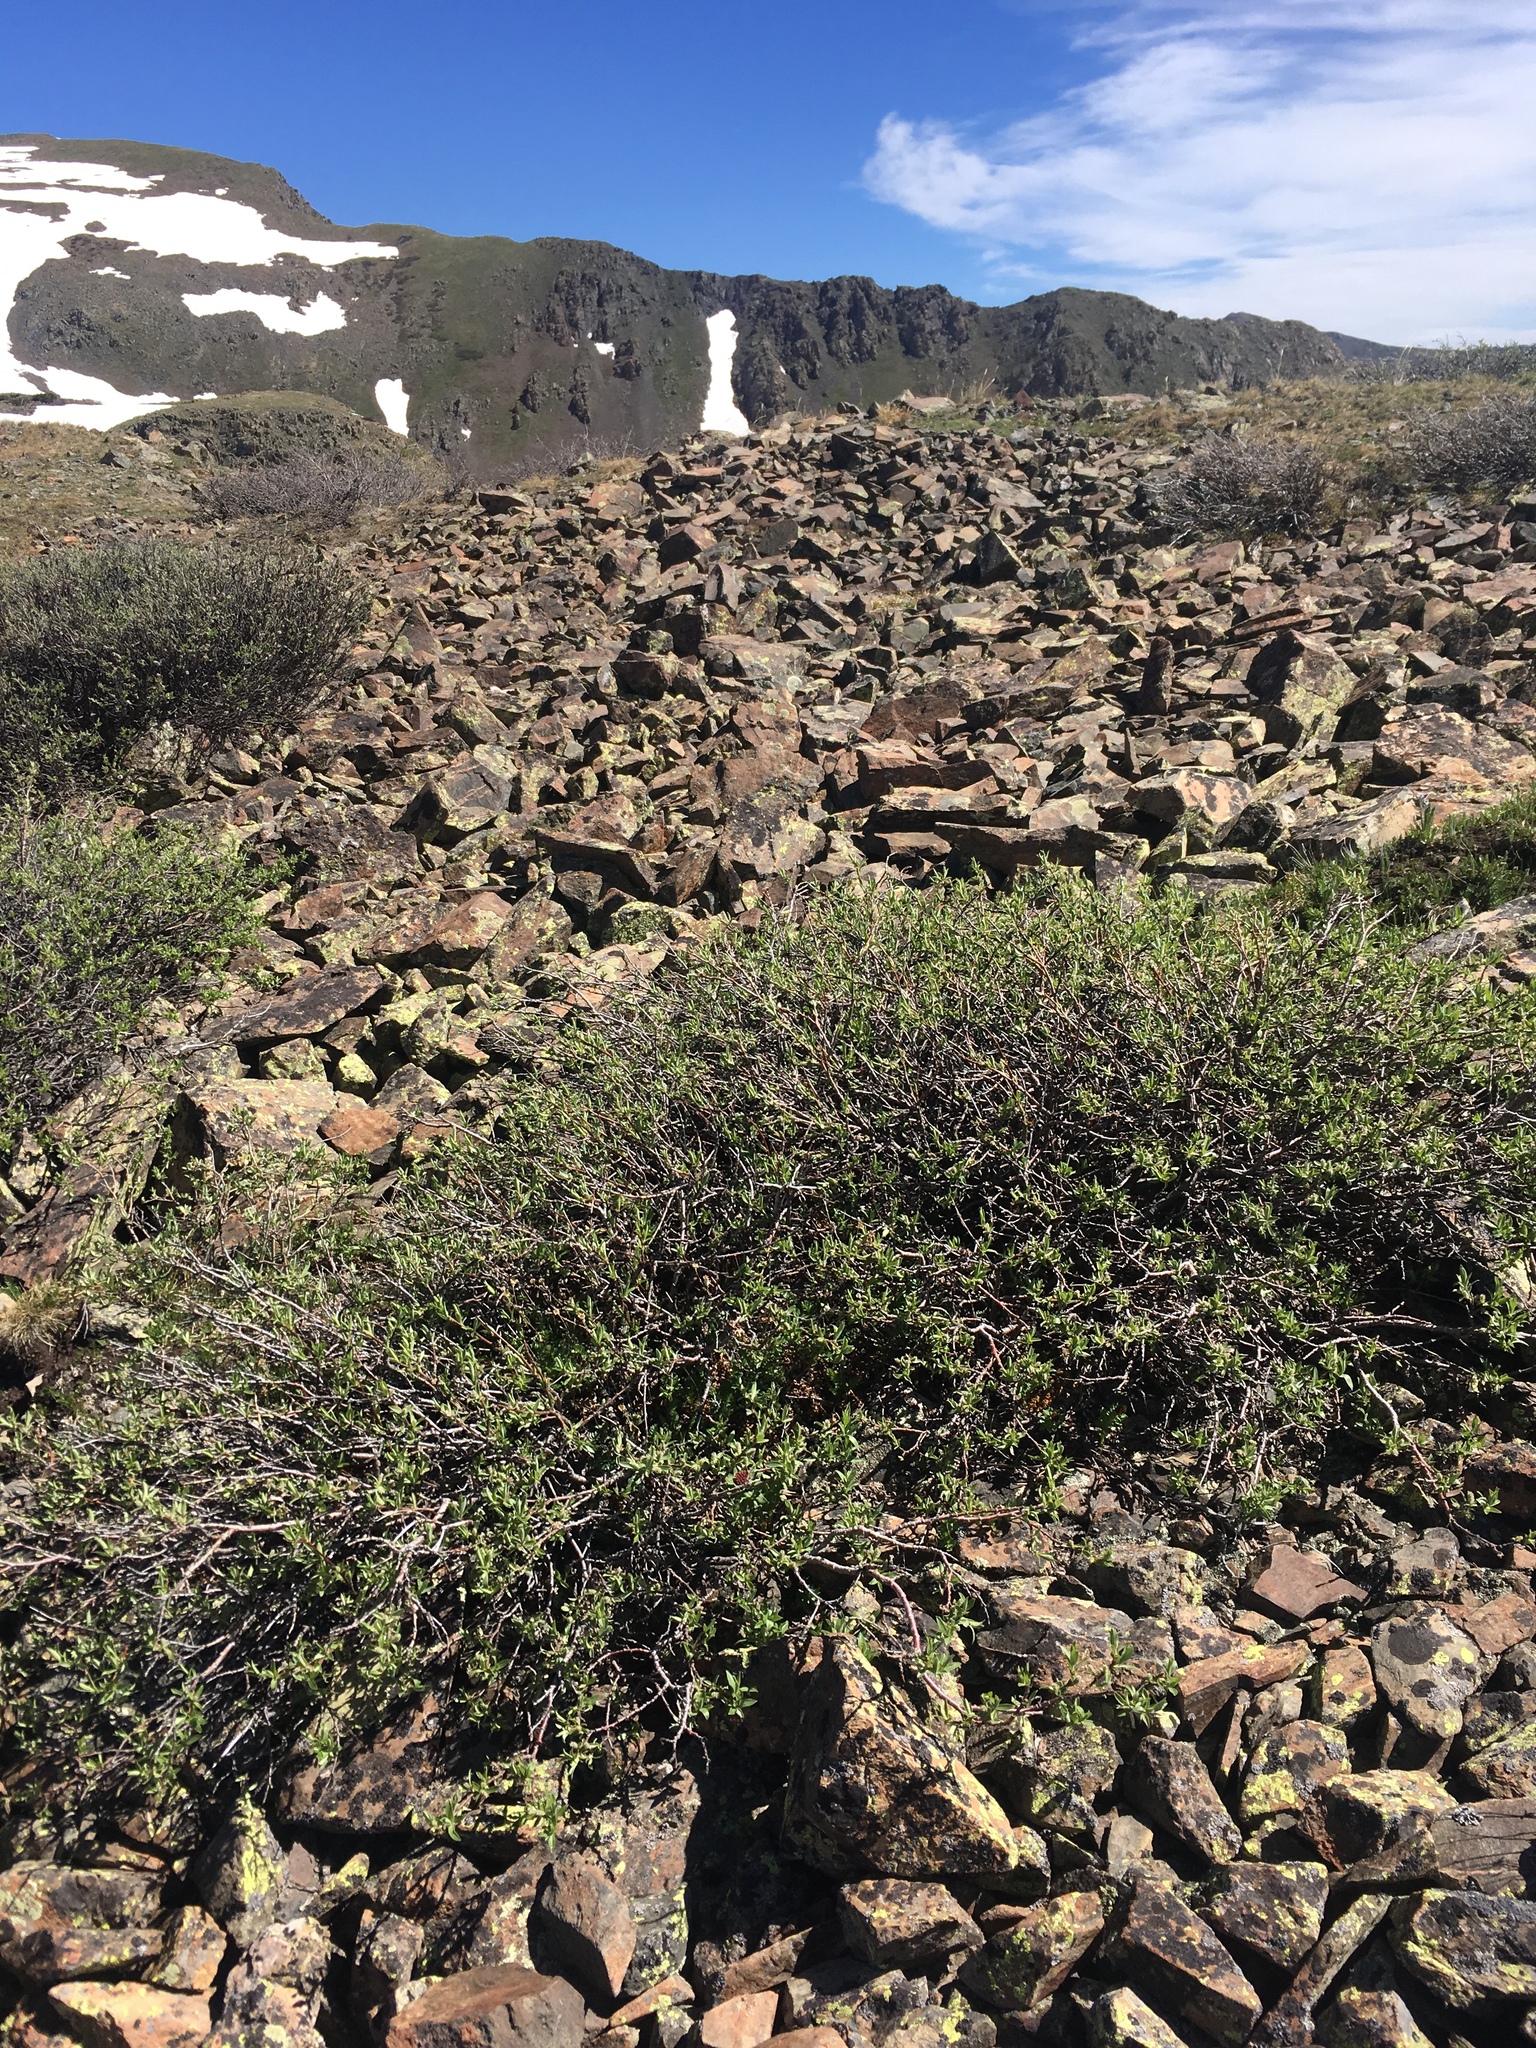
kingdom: Plantae
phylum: Tracheophyta
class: Magnoliopsida
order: Malpighiales
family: Salicaceae
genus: Salix
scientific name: Salix wolfii
